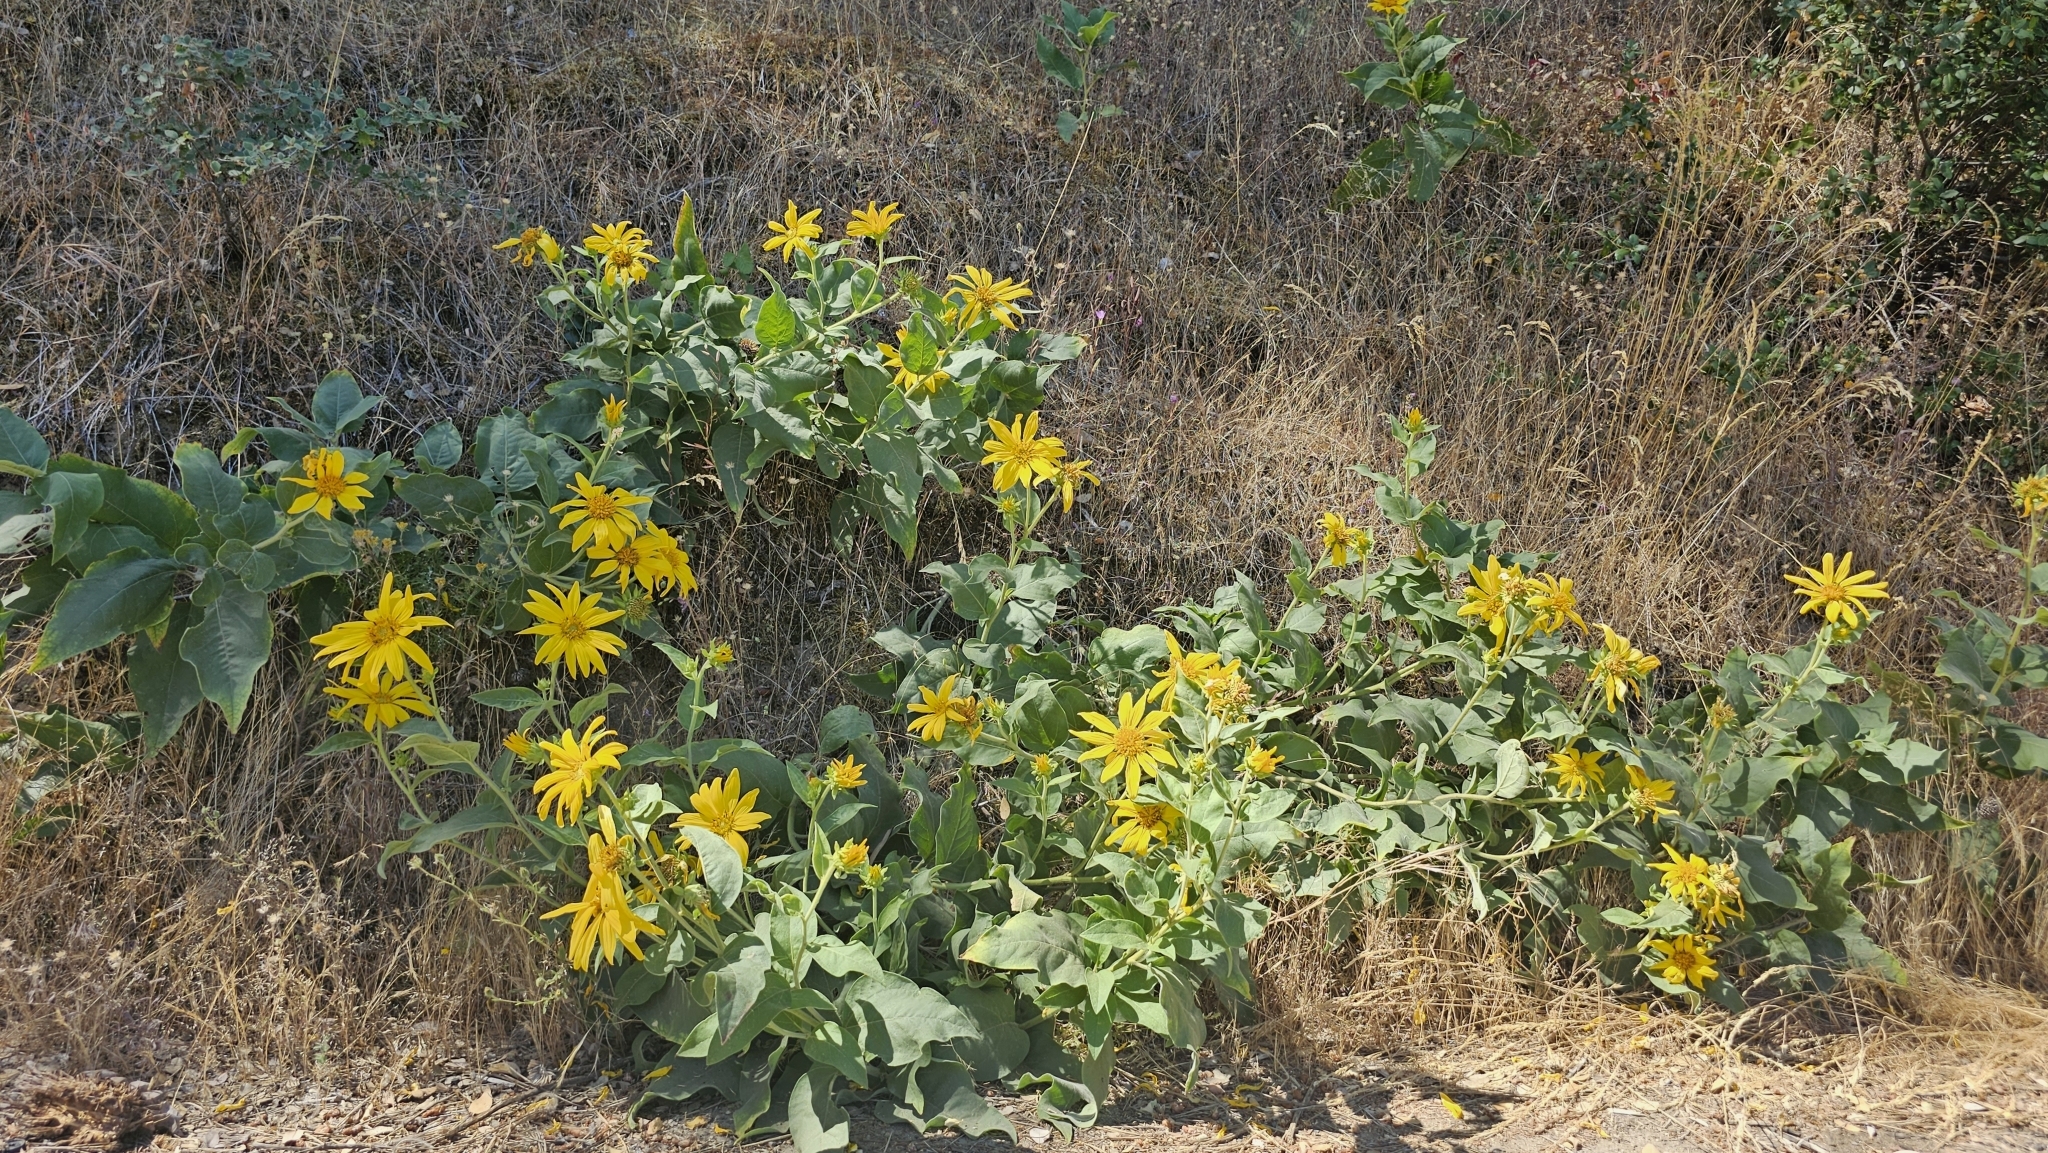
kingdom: Plantae
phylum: Tracheophyta
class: Magnoliopsida
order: Asterales
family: Asteraceae
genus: Agnorhiza
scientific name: Agnorhiza elata
